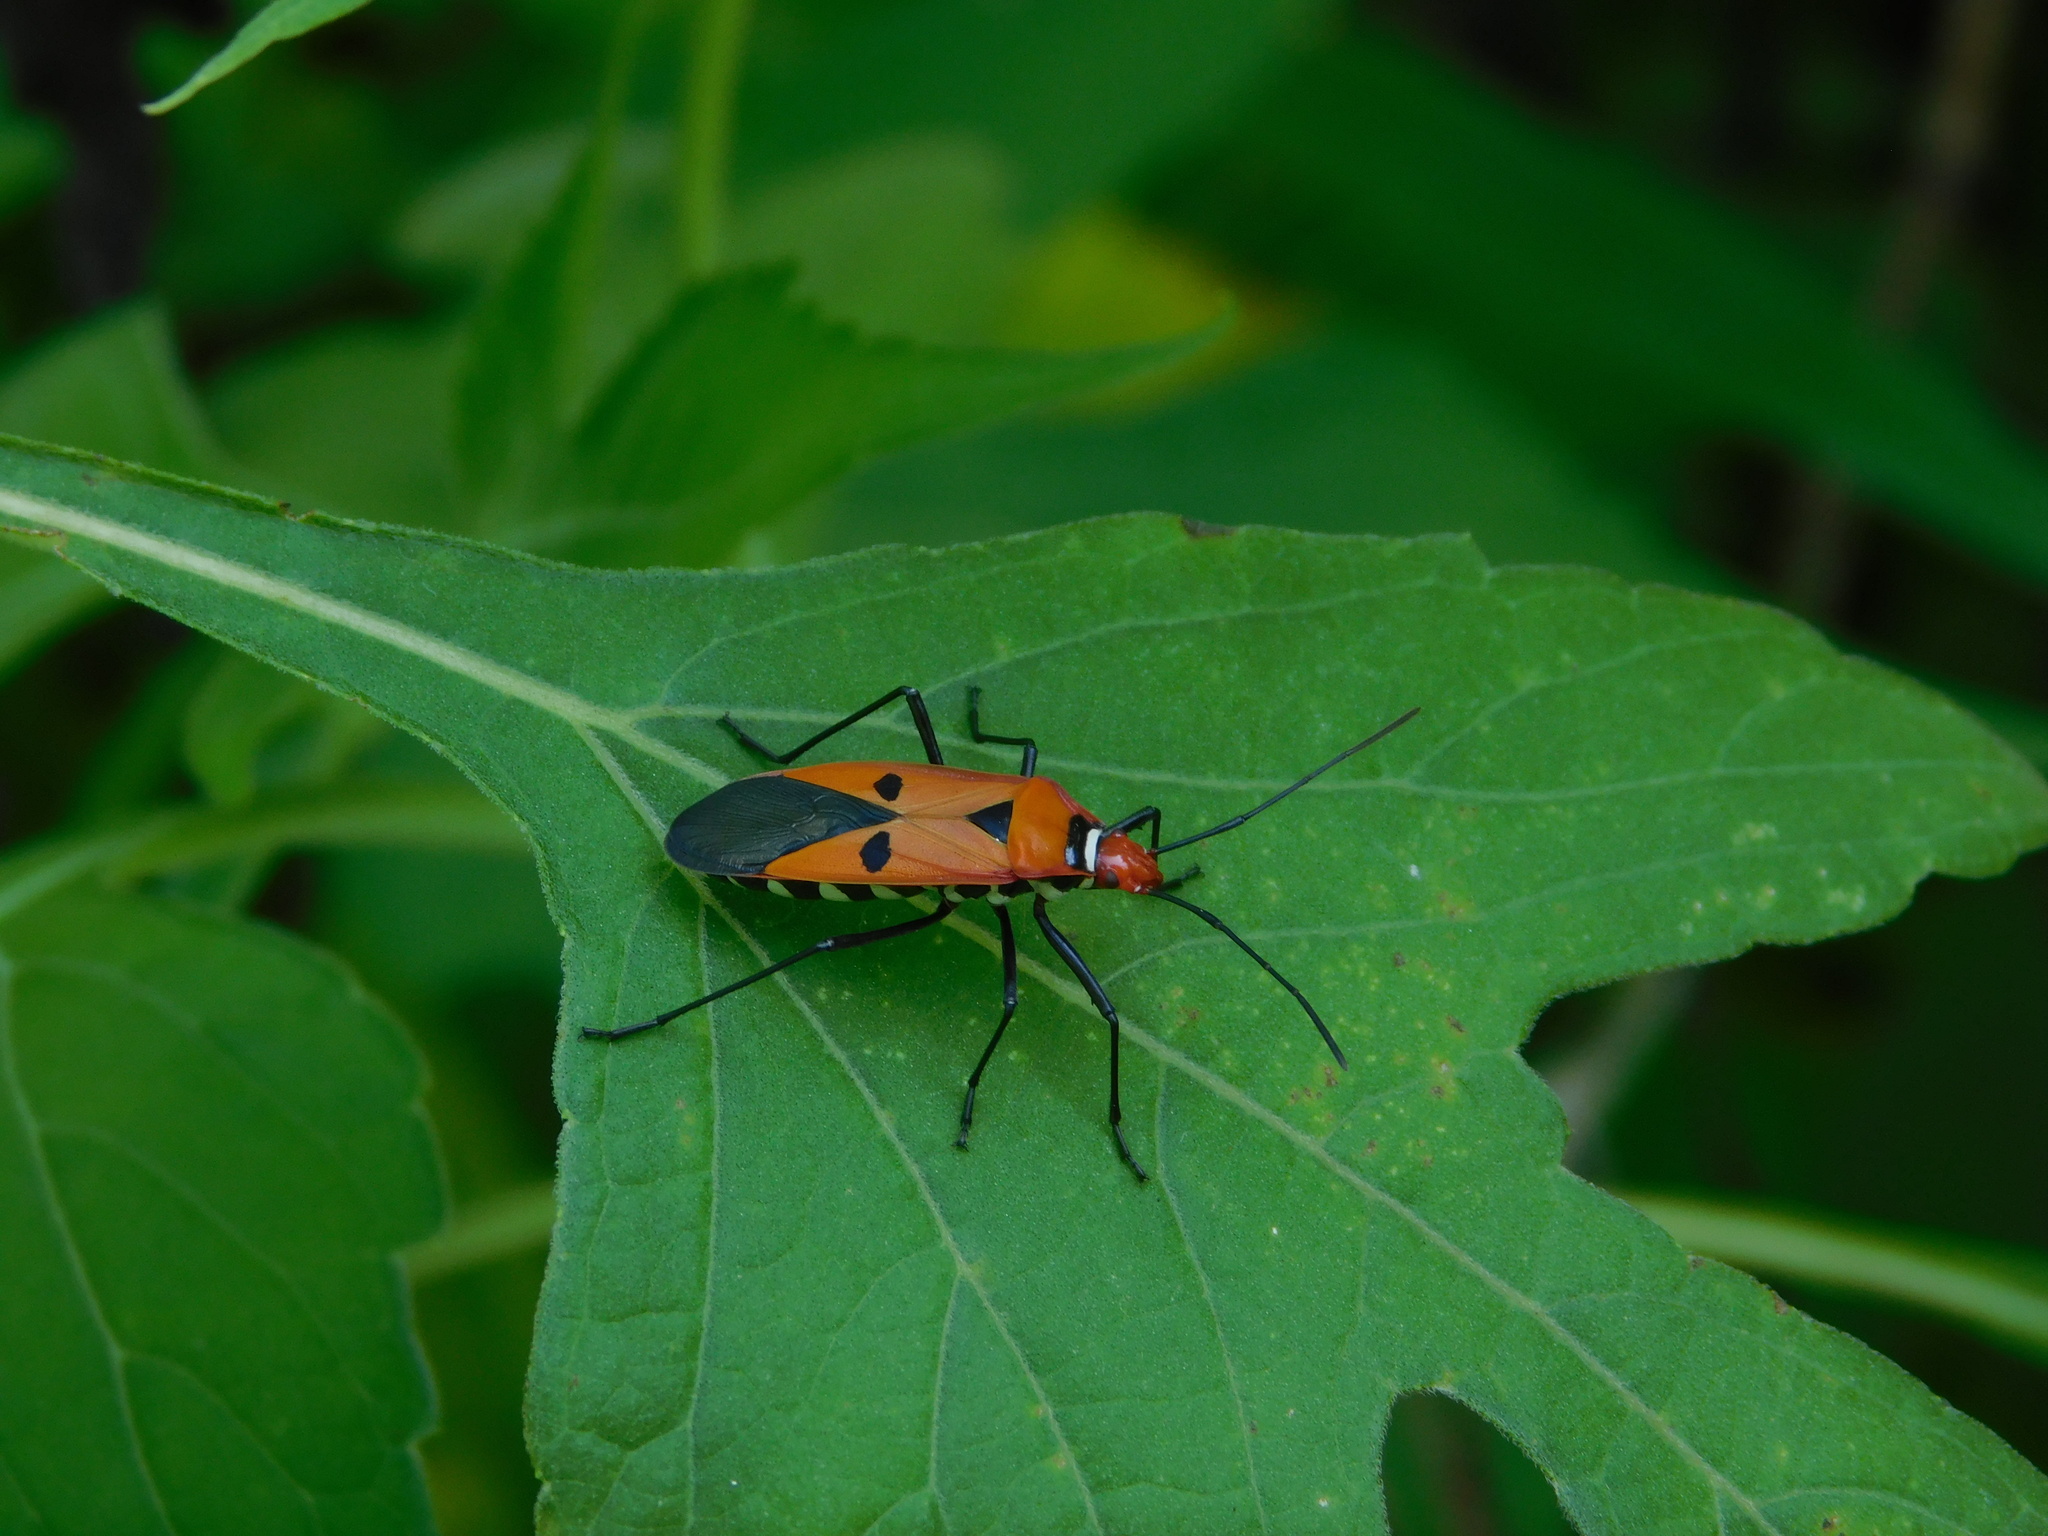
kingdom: Animalia
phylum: Arthropoda
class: Insecta
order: Hemiptera
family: Pyrrhocoridae
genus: Dysdercus
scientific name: Dysdercus cingulatus
